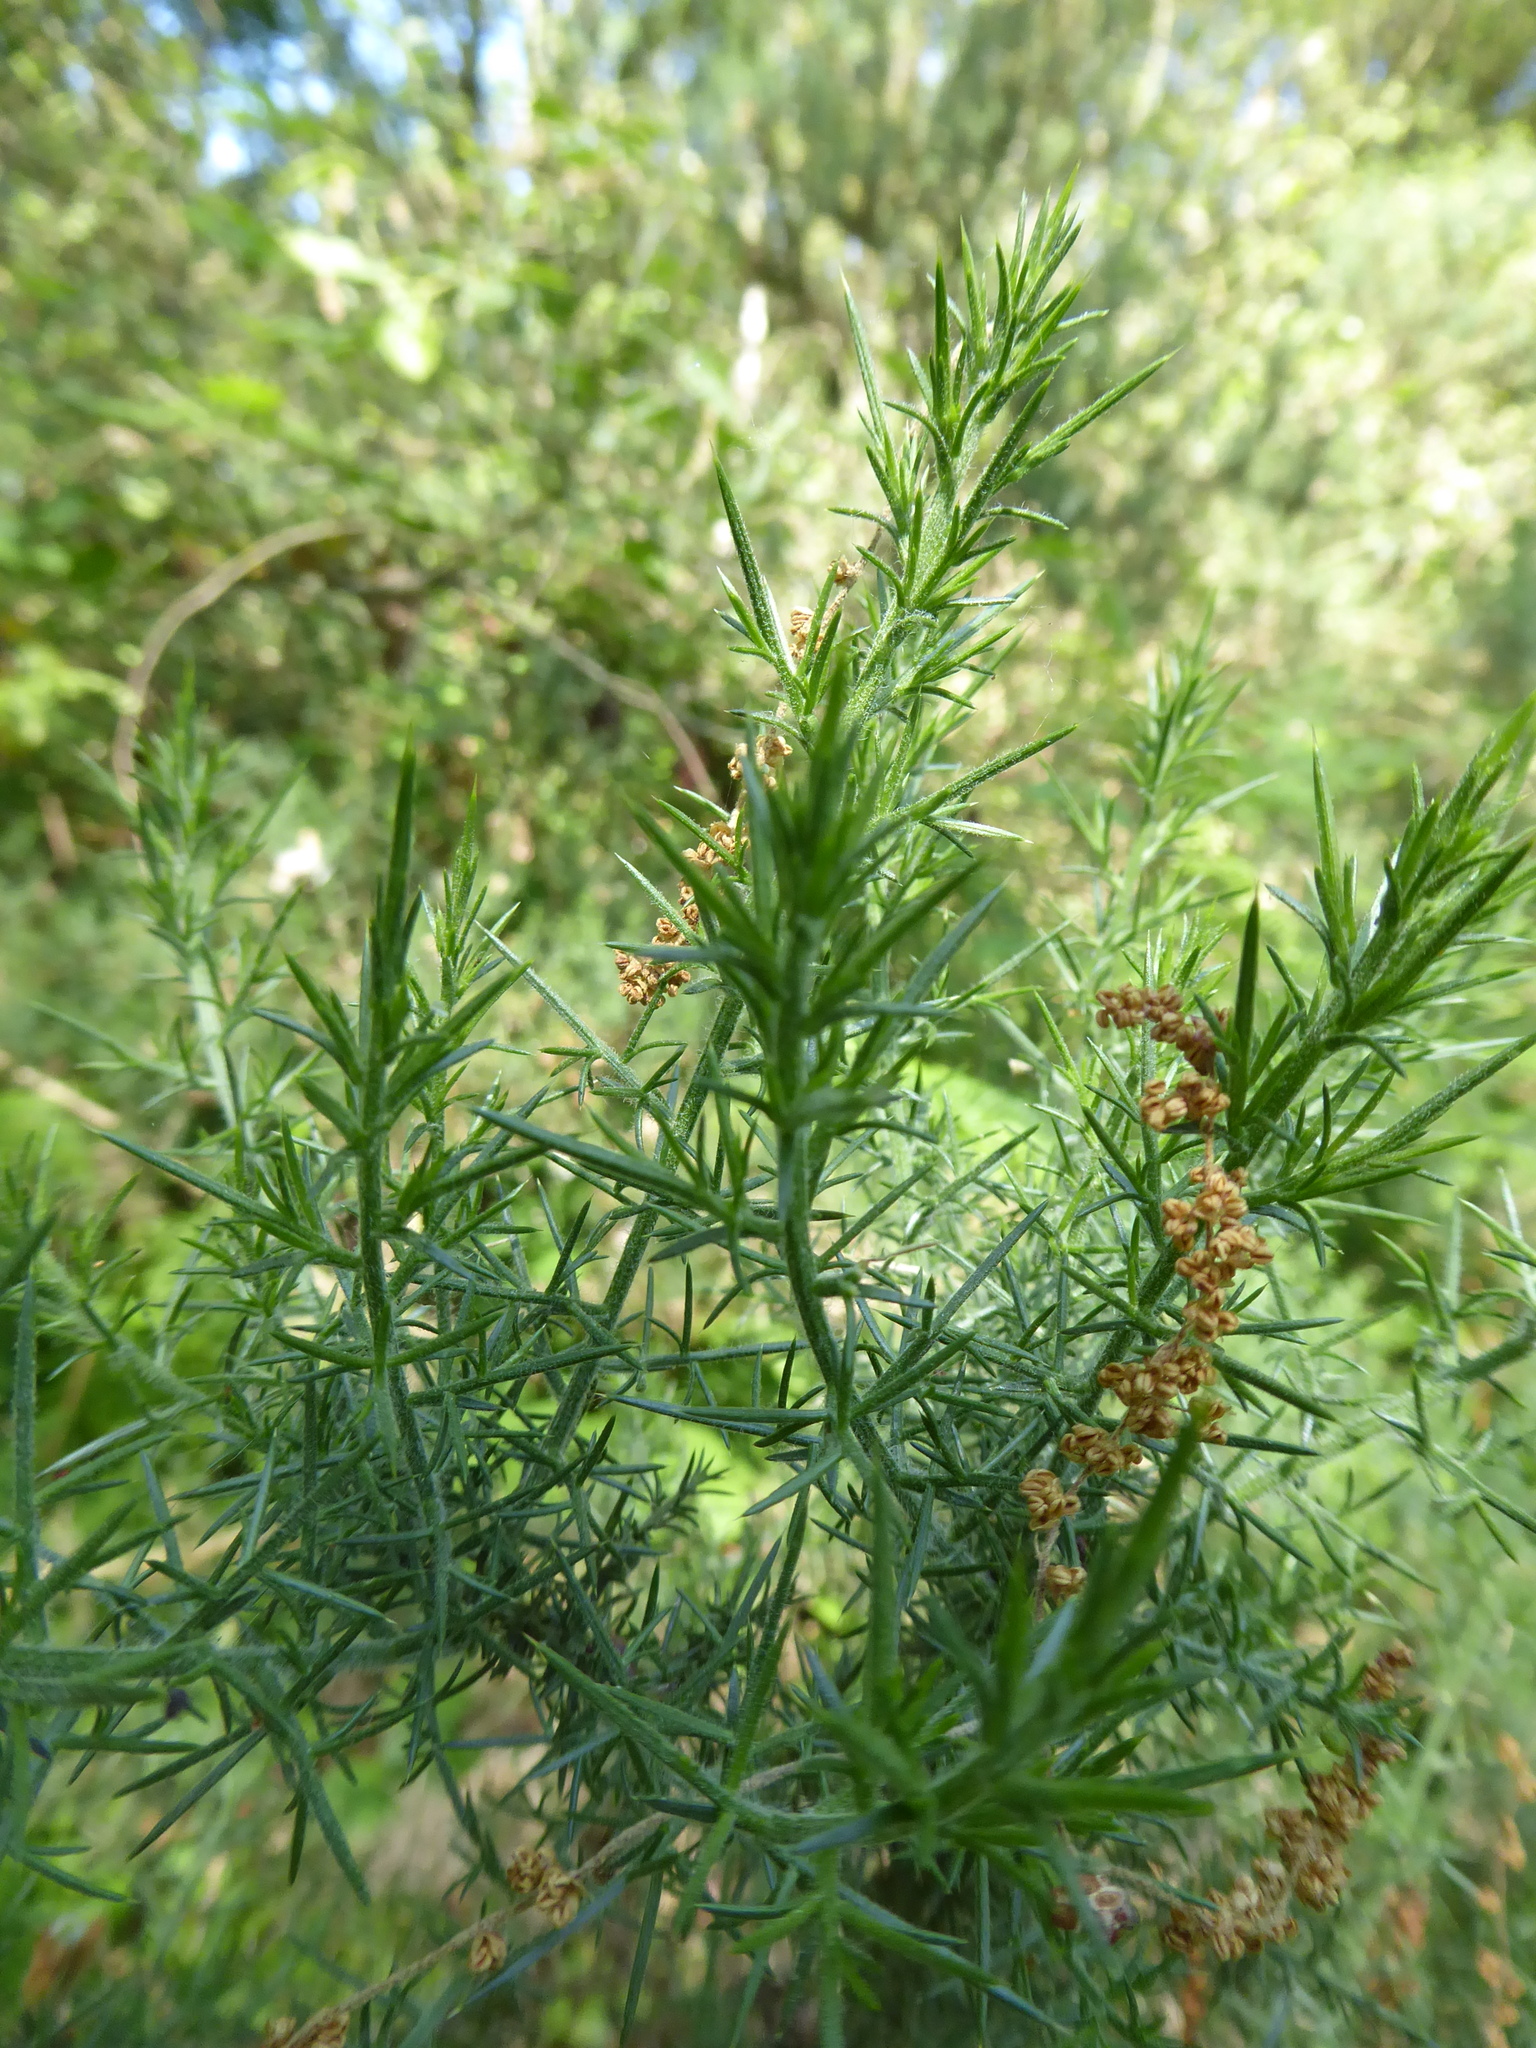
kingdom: Plantae
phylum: Tracheophyta
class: Magnoliopsida
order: Fabales
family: Fabaceae
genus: Ulex
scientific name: Ulex europaeus
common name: Common gorse
